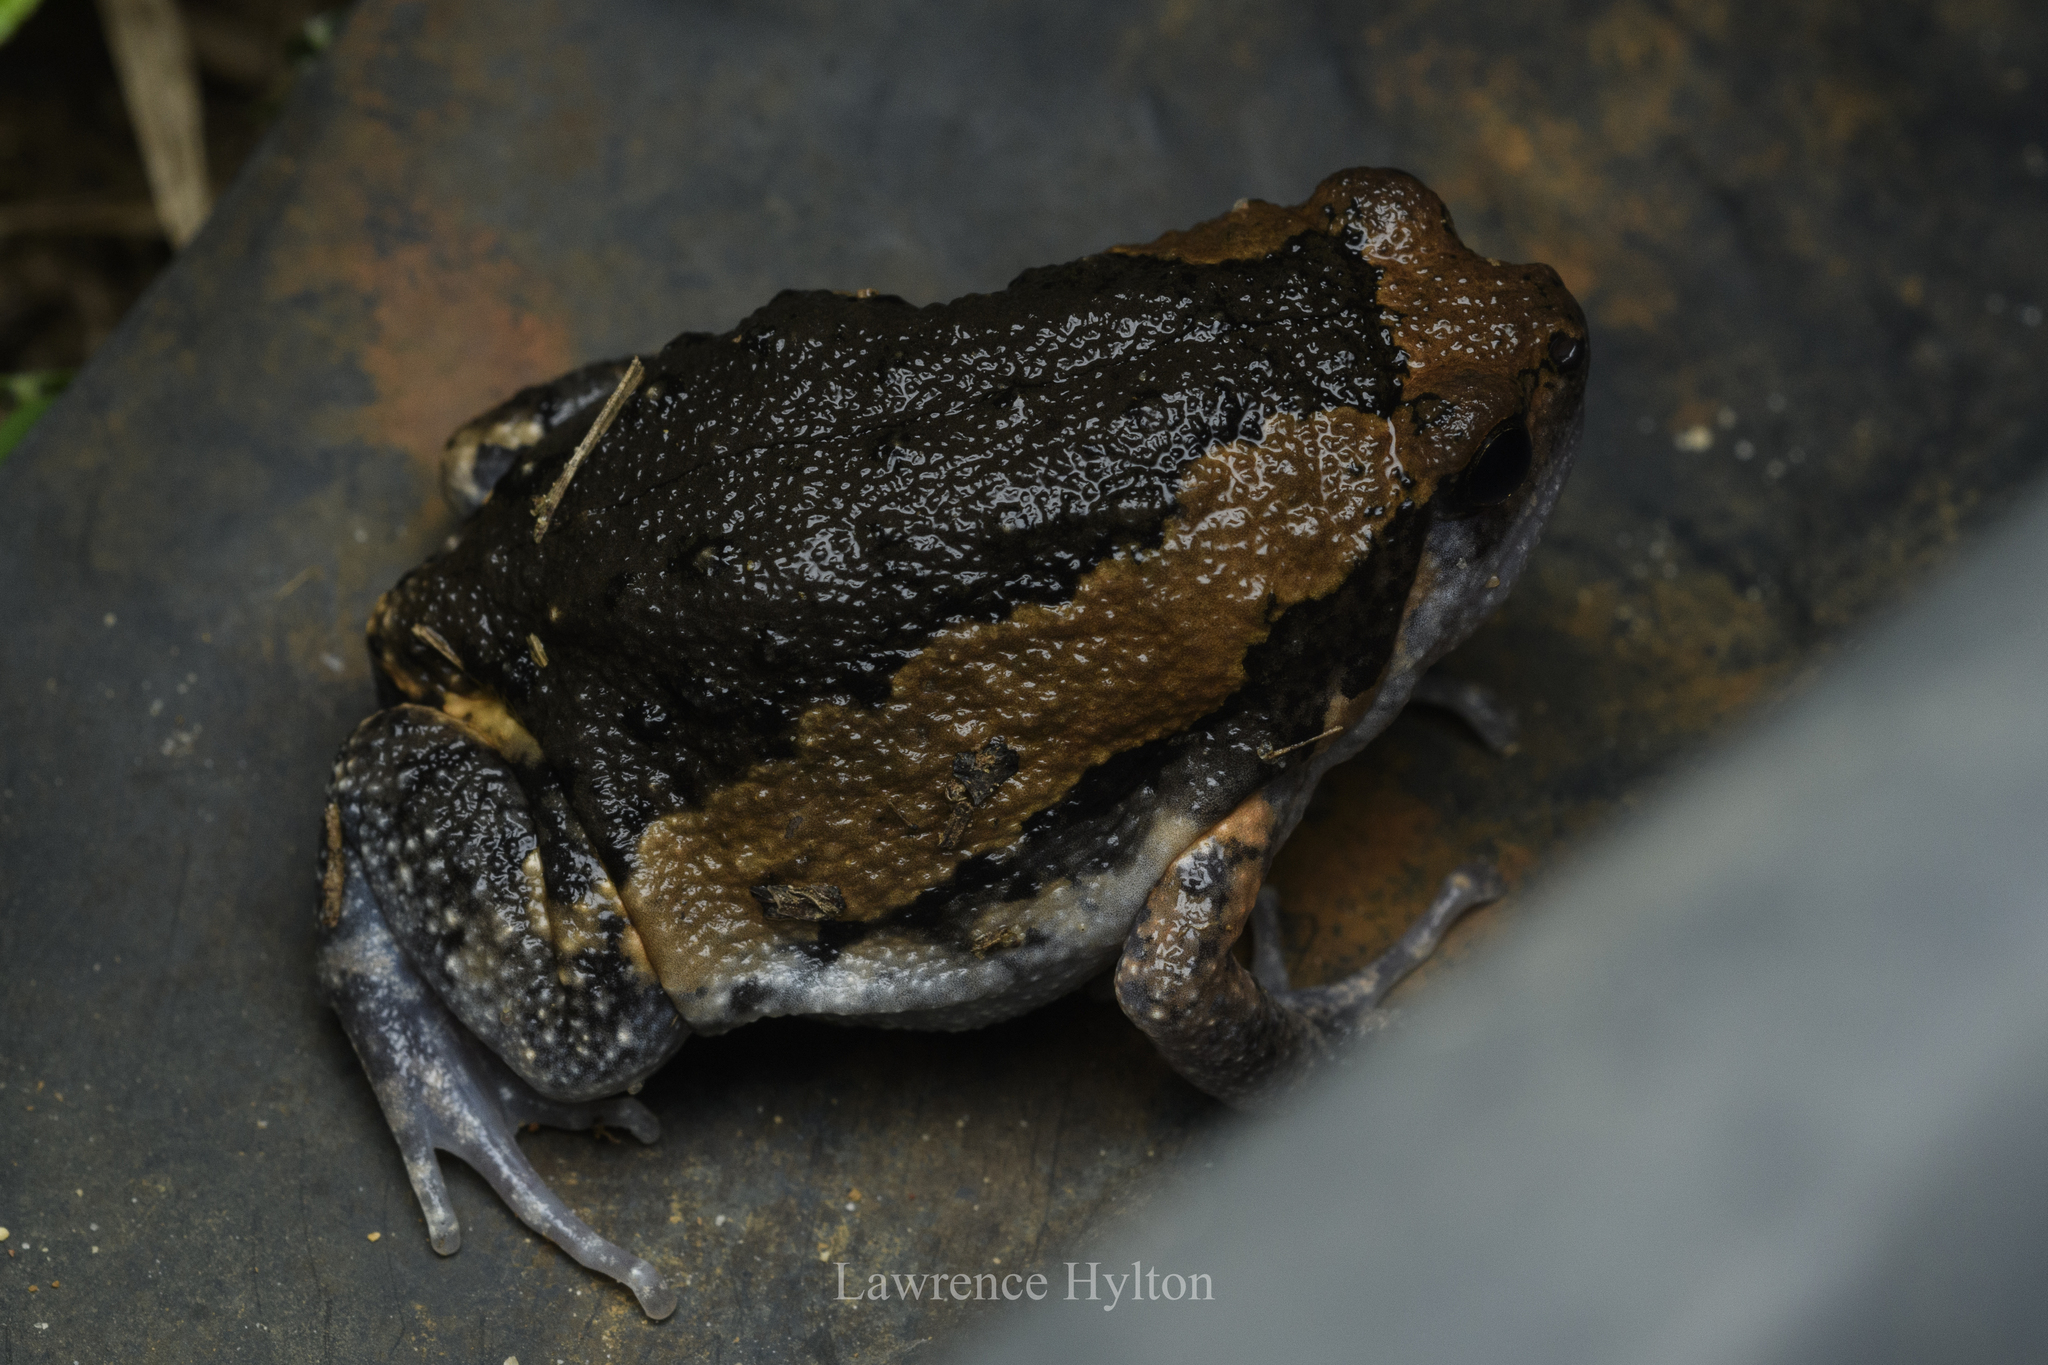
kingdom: Animalia
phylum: Chordata
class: Amphibia
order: Anura
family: Microhylidae
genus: Kaloula
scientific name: Kaloula pulchra
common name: Common,banded bullfrog
